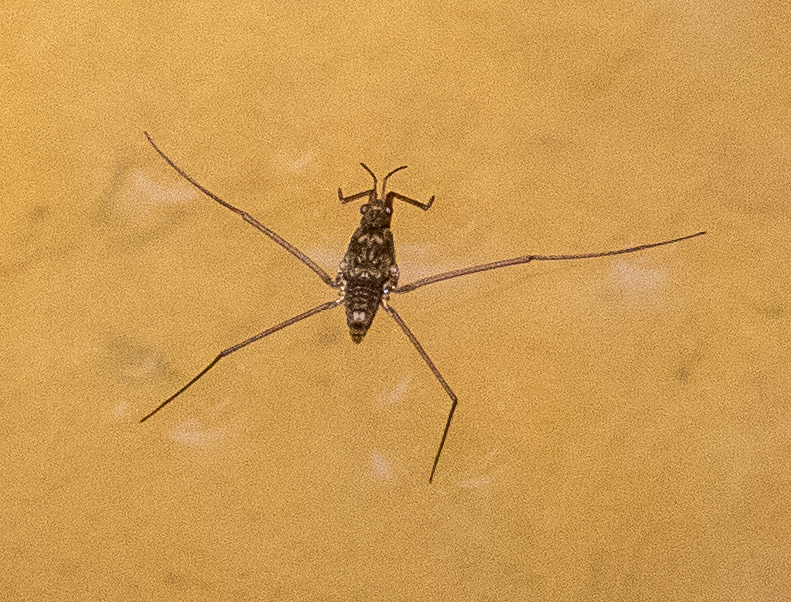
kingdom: Animalia
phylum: Arthropoda
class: Insecta
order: Hemiptera
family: Gerridae
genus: Aquarius
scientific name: Aquarius
